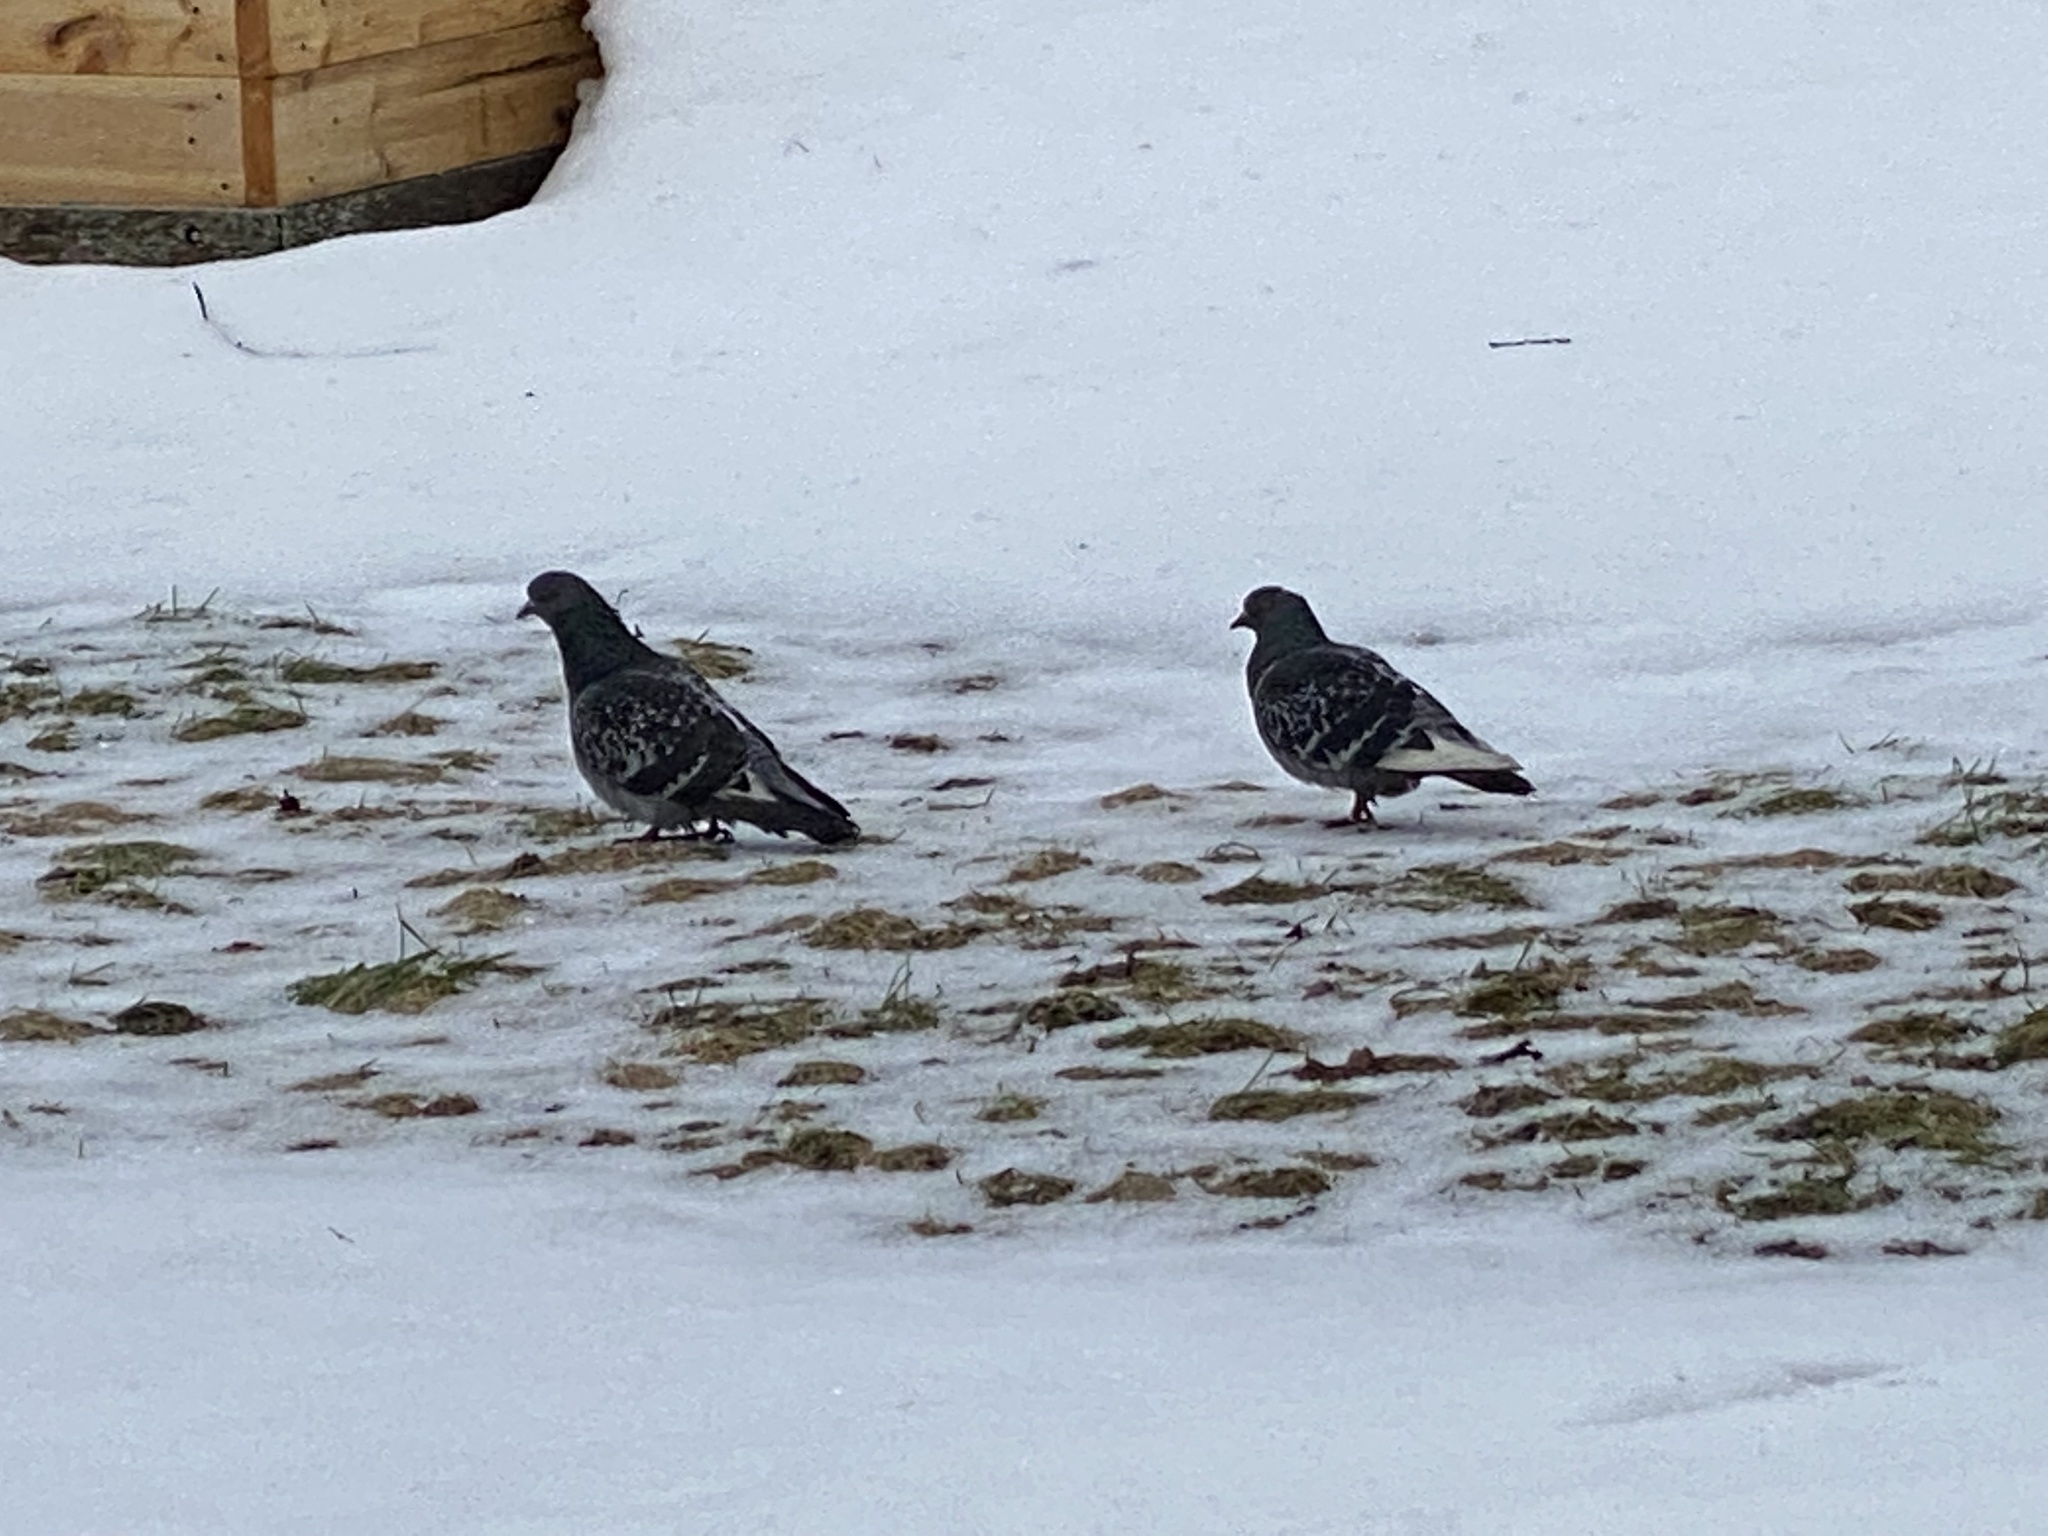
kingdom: Animalia
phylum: Chordata
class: Aves
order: Columbiformes
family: Columbidae
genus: Columba
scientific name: Columba livia
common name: Rock pigeon
